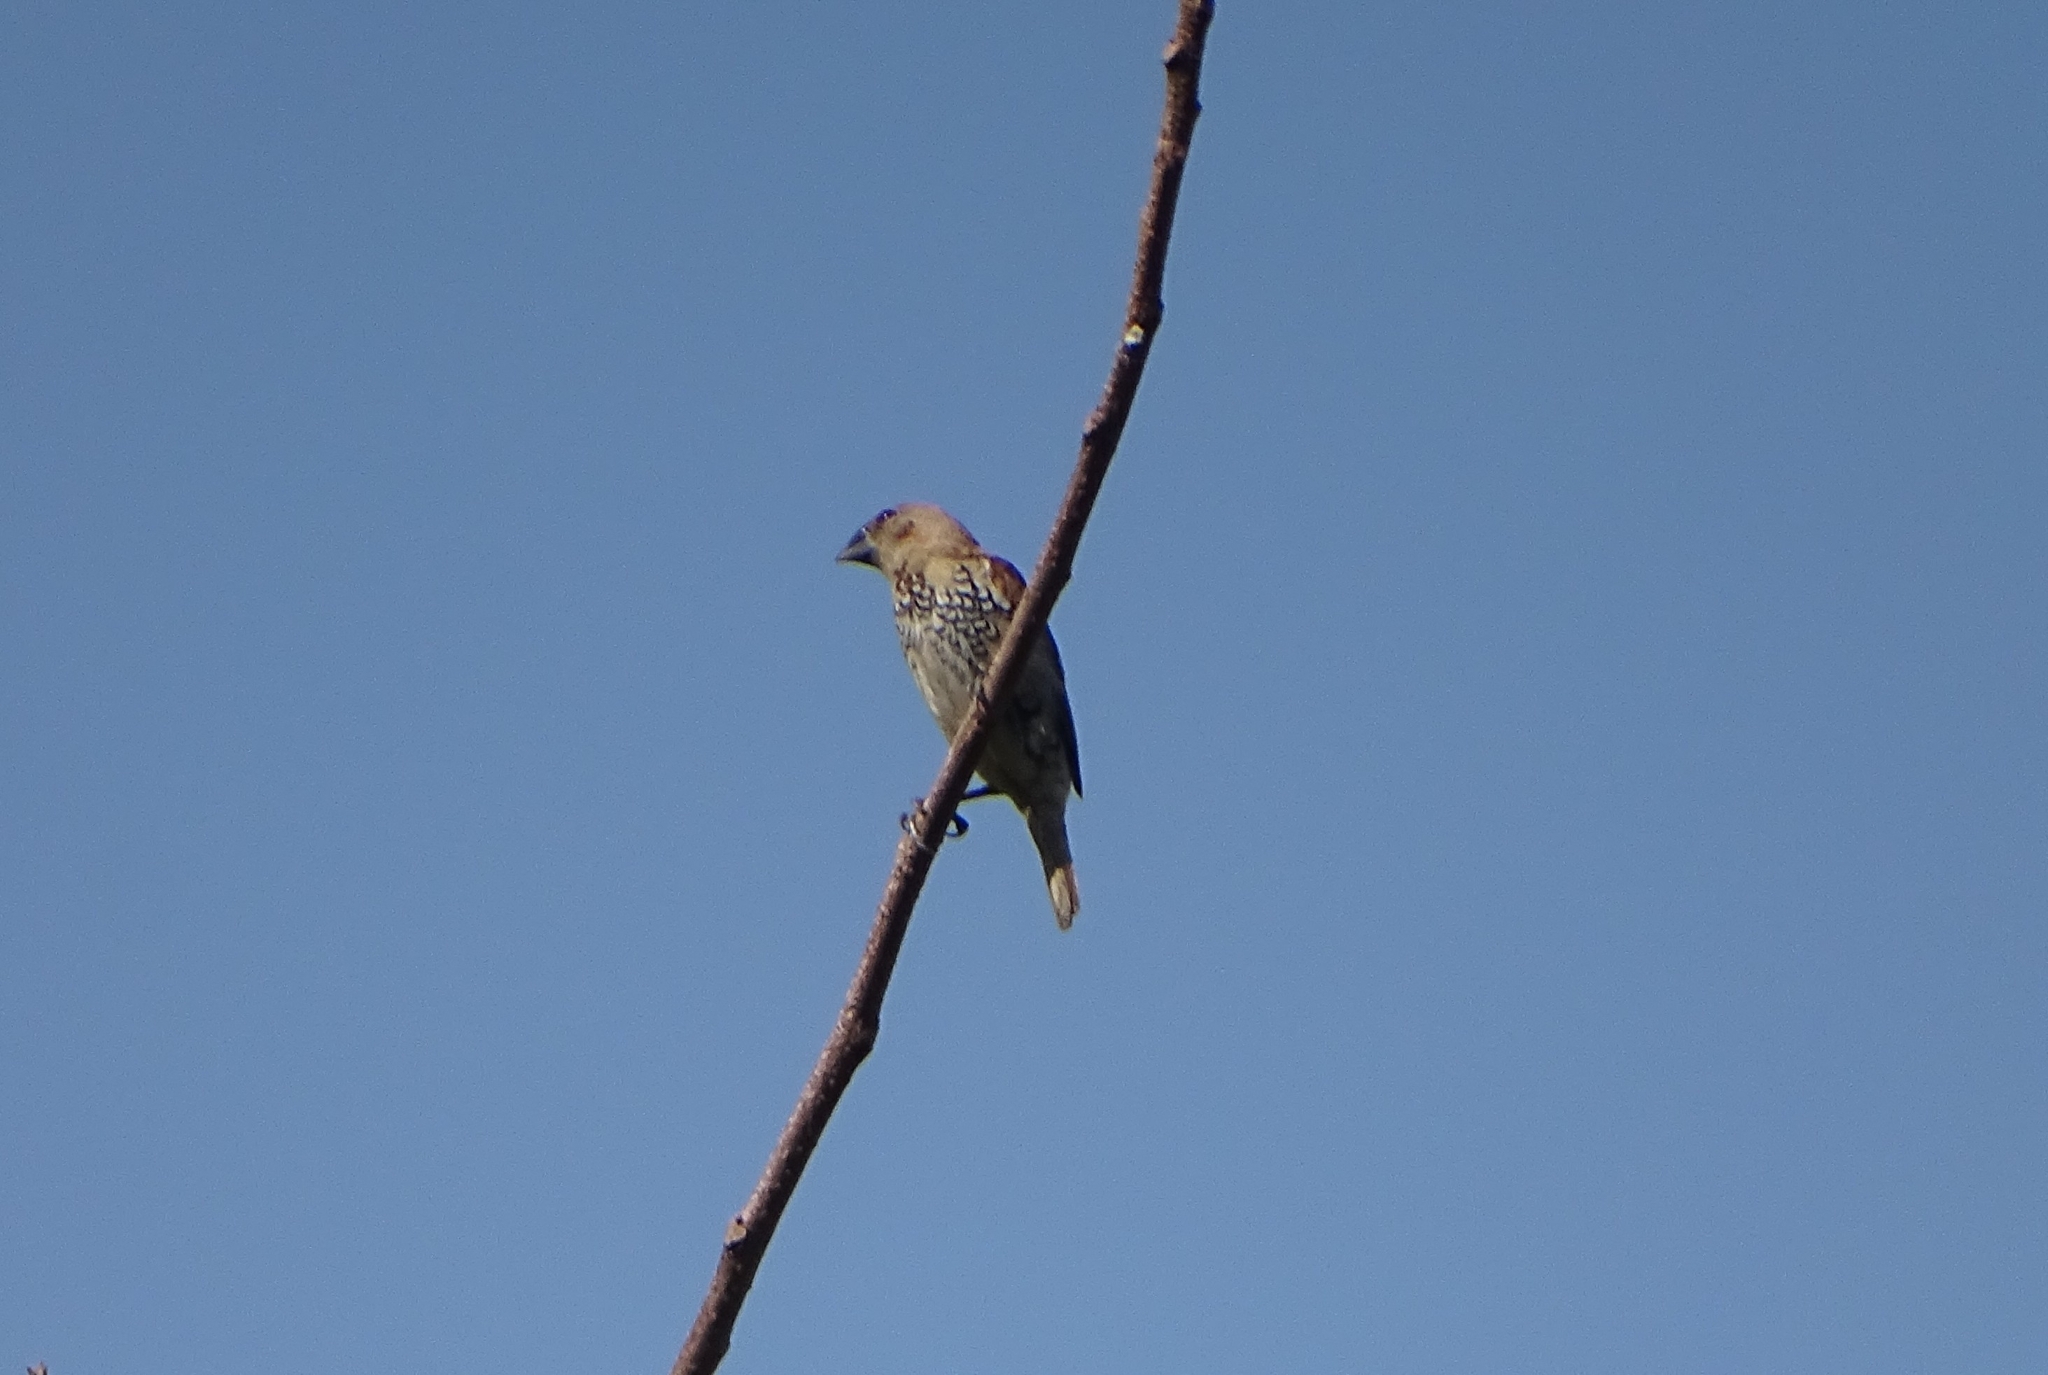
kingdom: Animalia
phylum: Chordata
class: Aves
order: Passeriformes
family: Estrildidae
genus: Lonchura
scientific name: Lonchura punctulata
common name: Scaly-breasted munia
